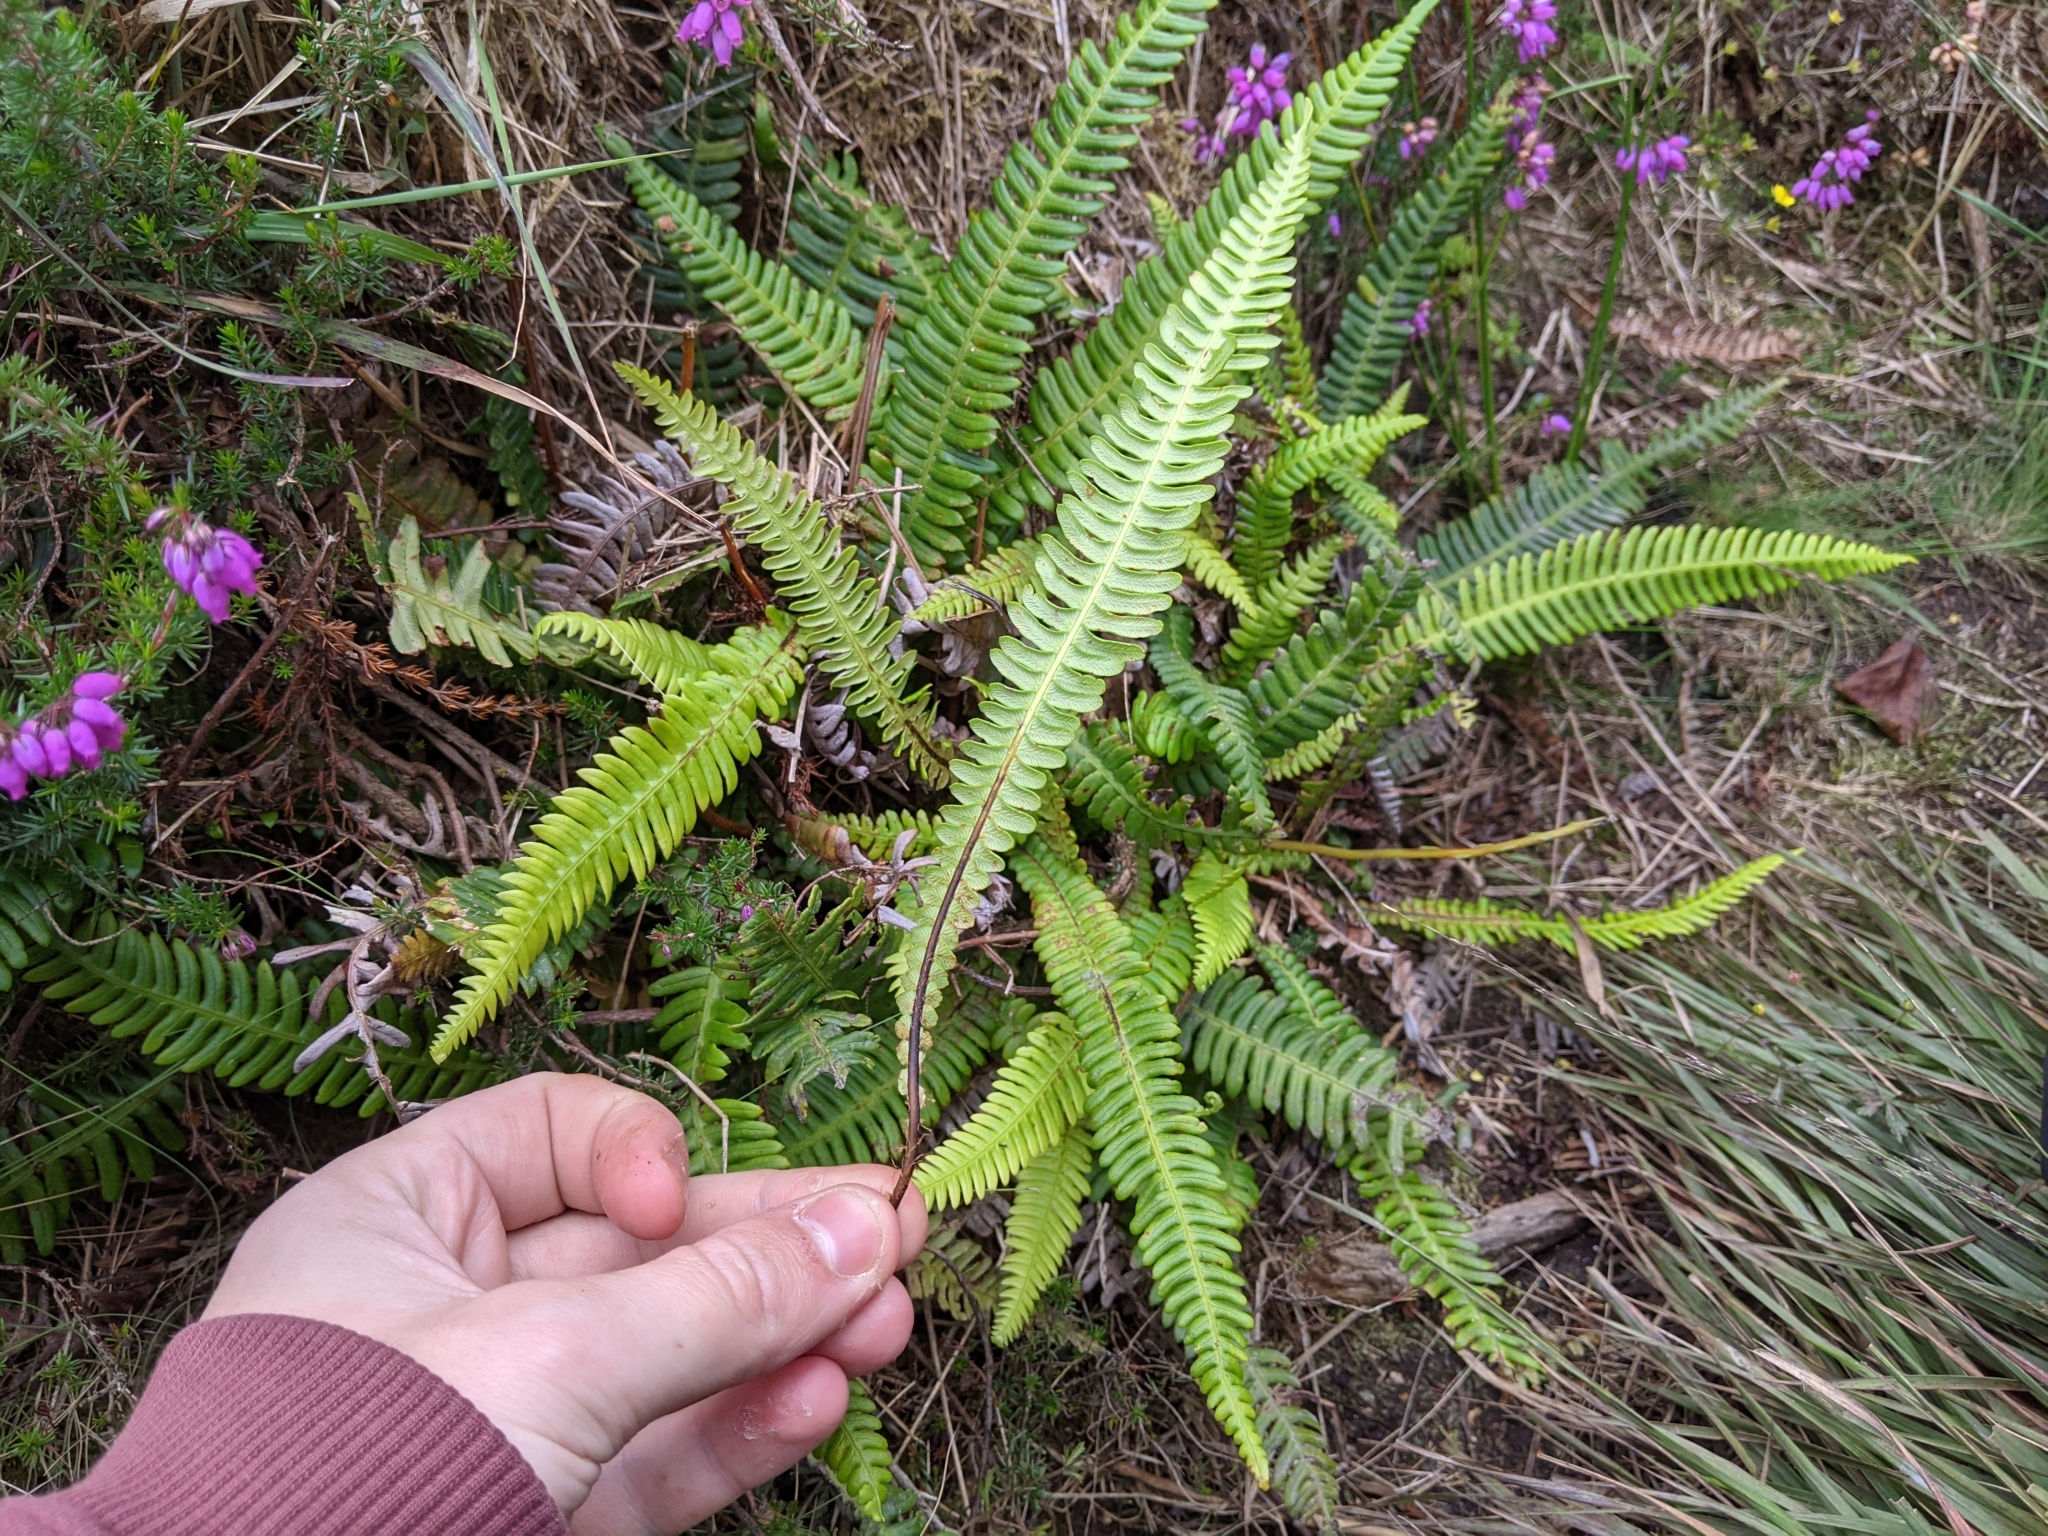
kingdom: Plantae
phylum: Tracheophyta
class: Polypodiopsida
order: Polypodiales
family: Blechnaceae
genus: Struthiopteris
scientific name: Struthiopteris spicant
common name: Deer fern
